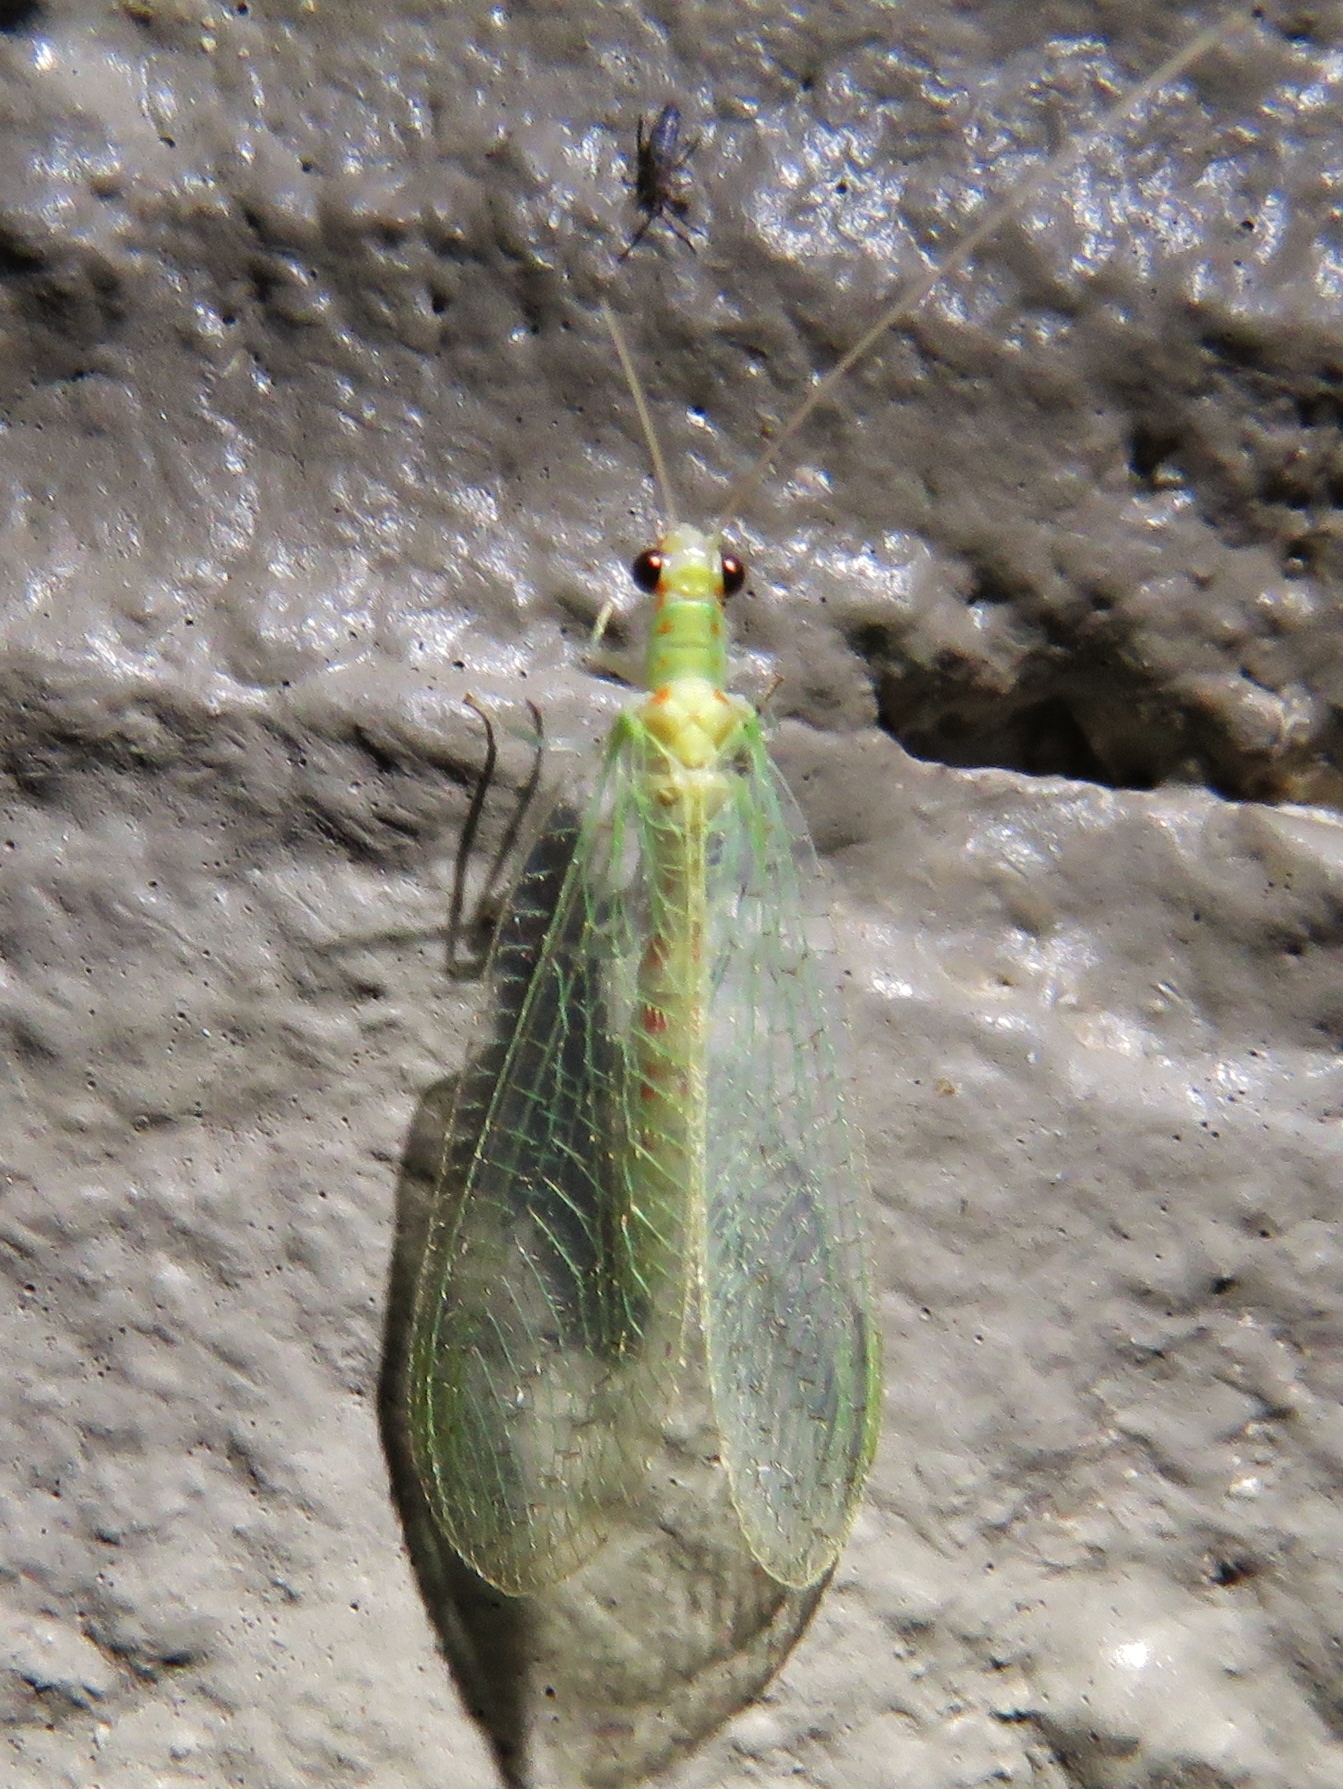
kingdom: Animalia
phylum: Arthropoda
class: Insecta
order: Neuroptera
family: Chrysopidae
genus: Chrysopa
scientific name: Chrysopa quadripunctata
